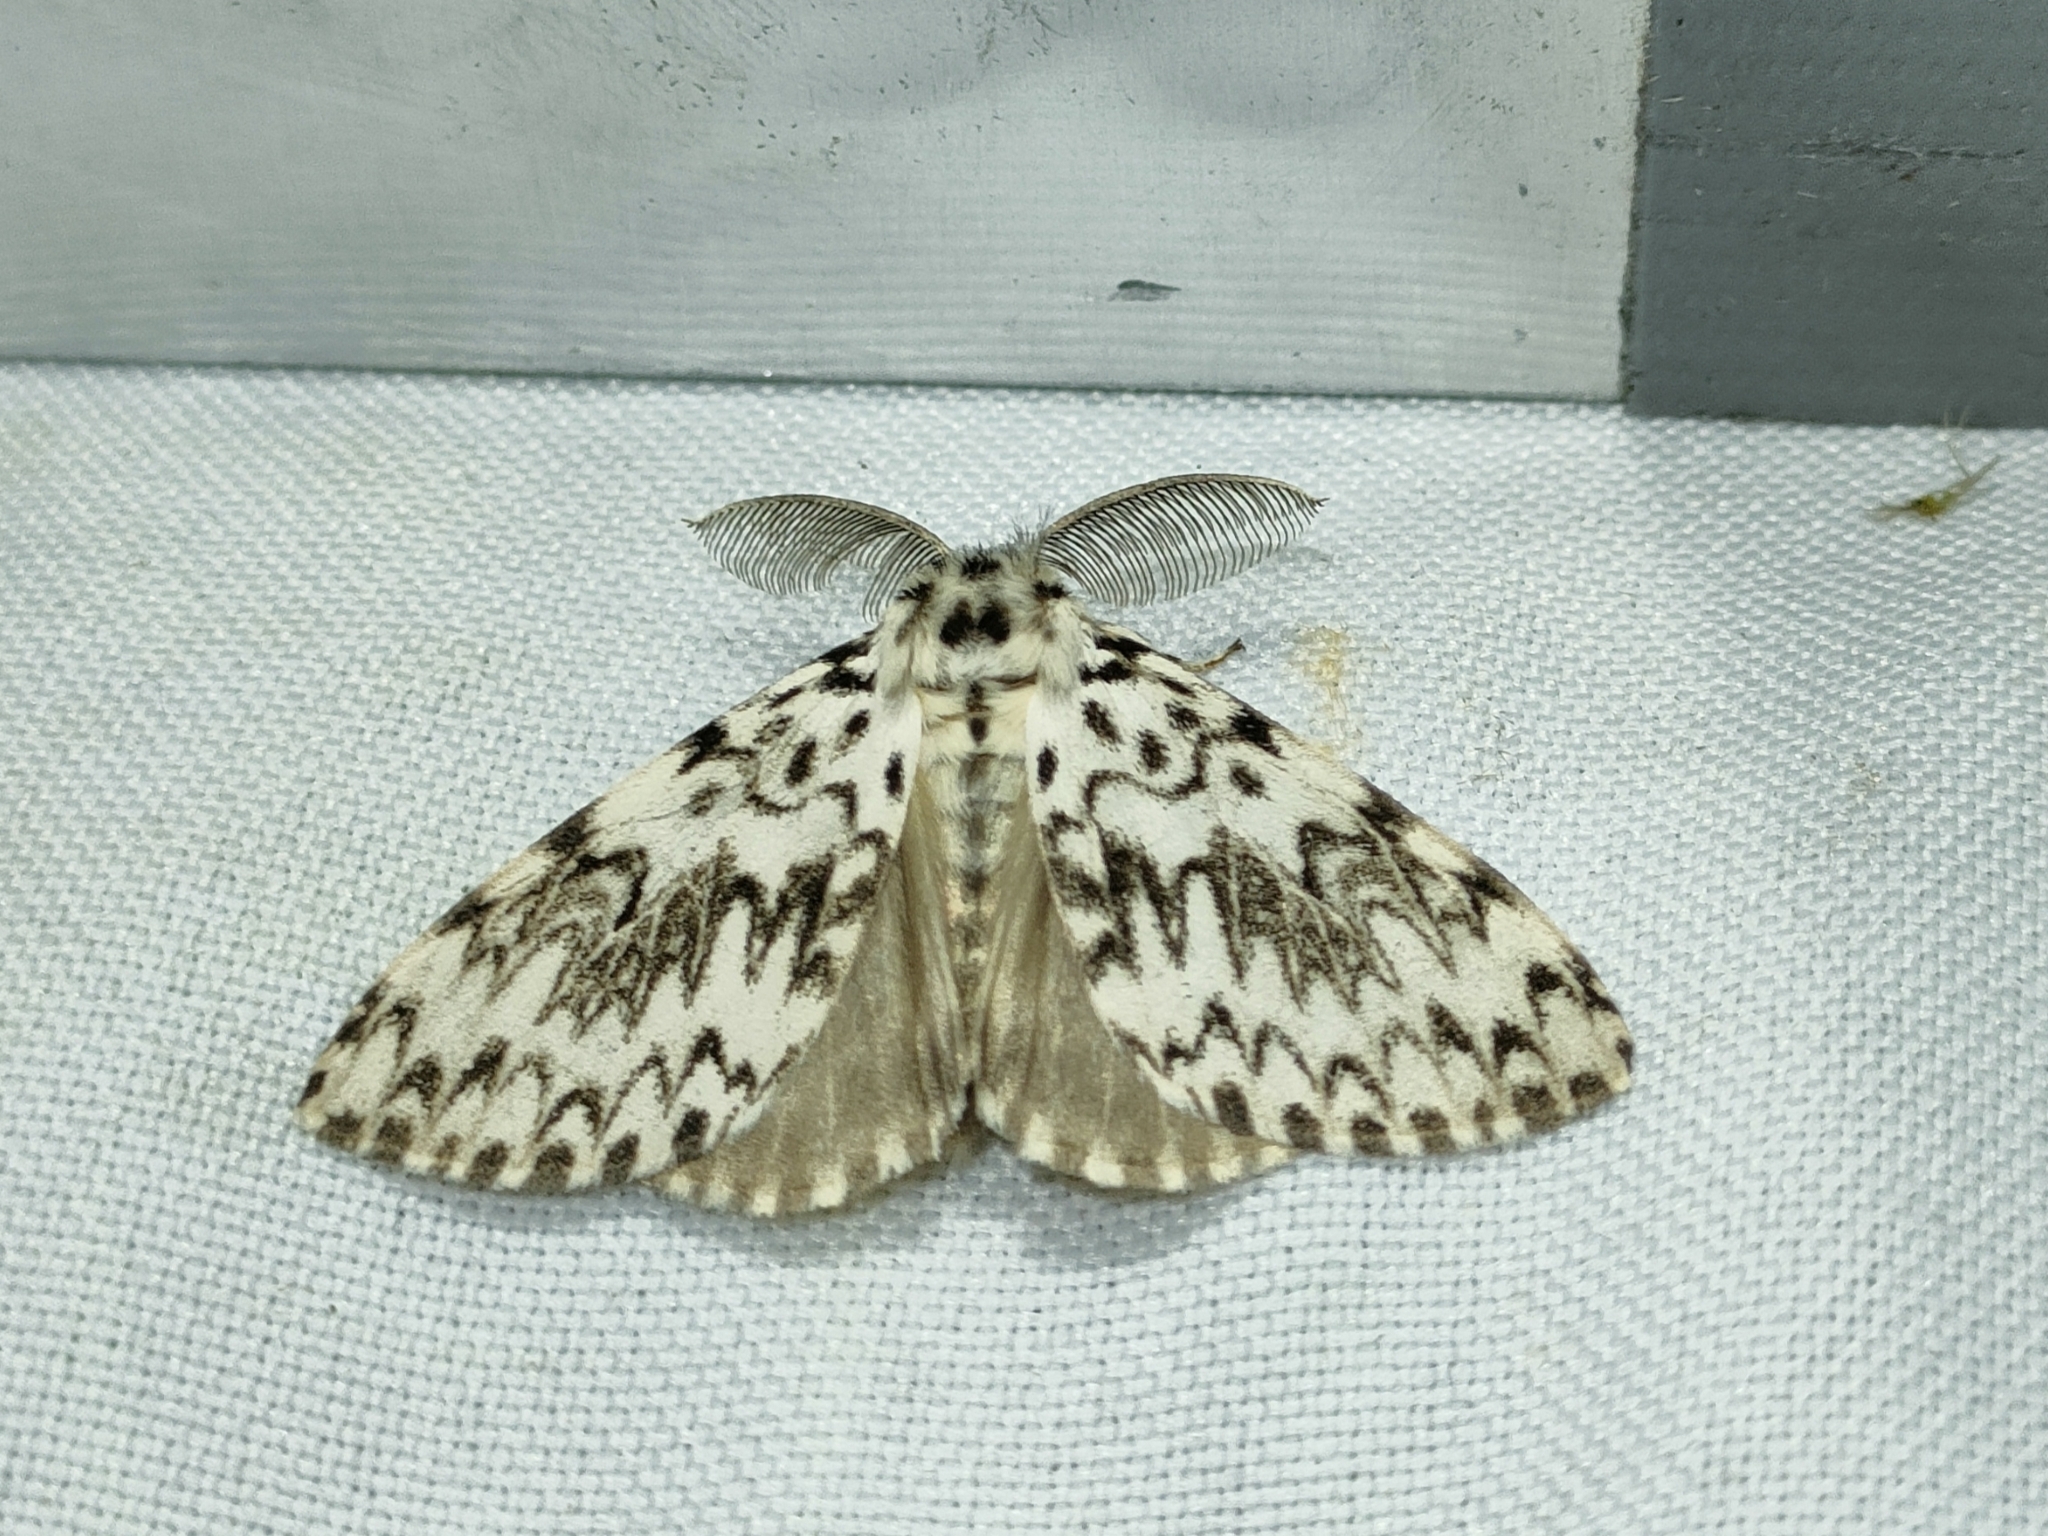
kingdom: Animalia
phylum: Arthropoda
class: Insecta
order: Lepidoptera
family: Erebidae
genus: Lymantria
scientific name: Lymantria monacha
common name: Black arches
